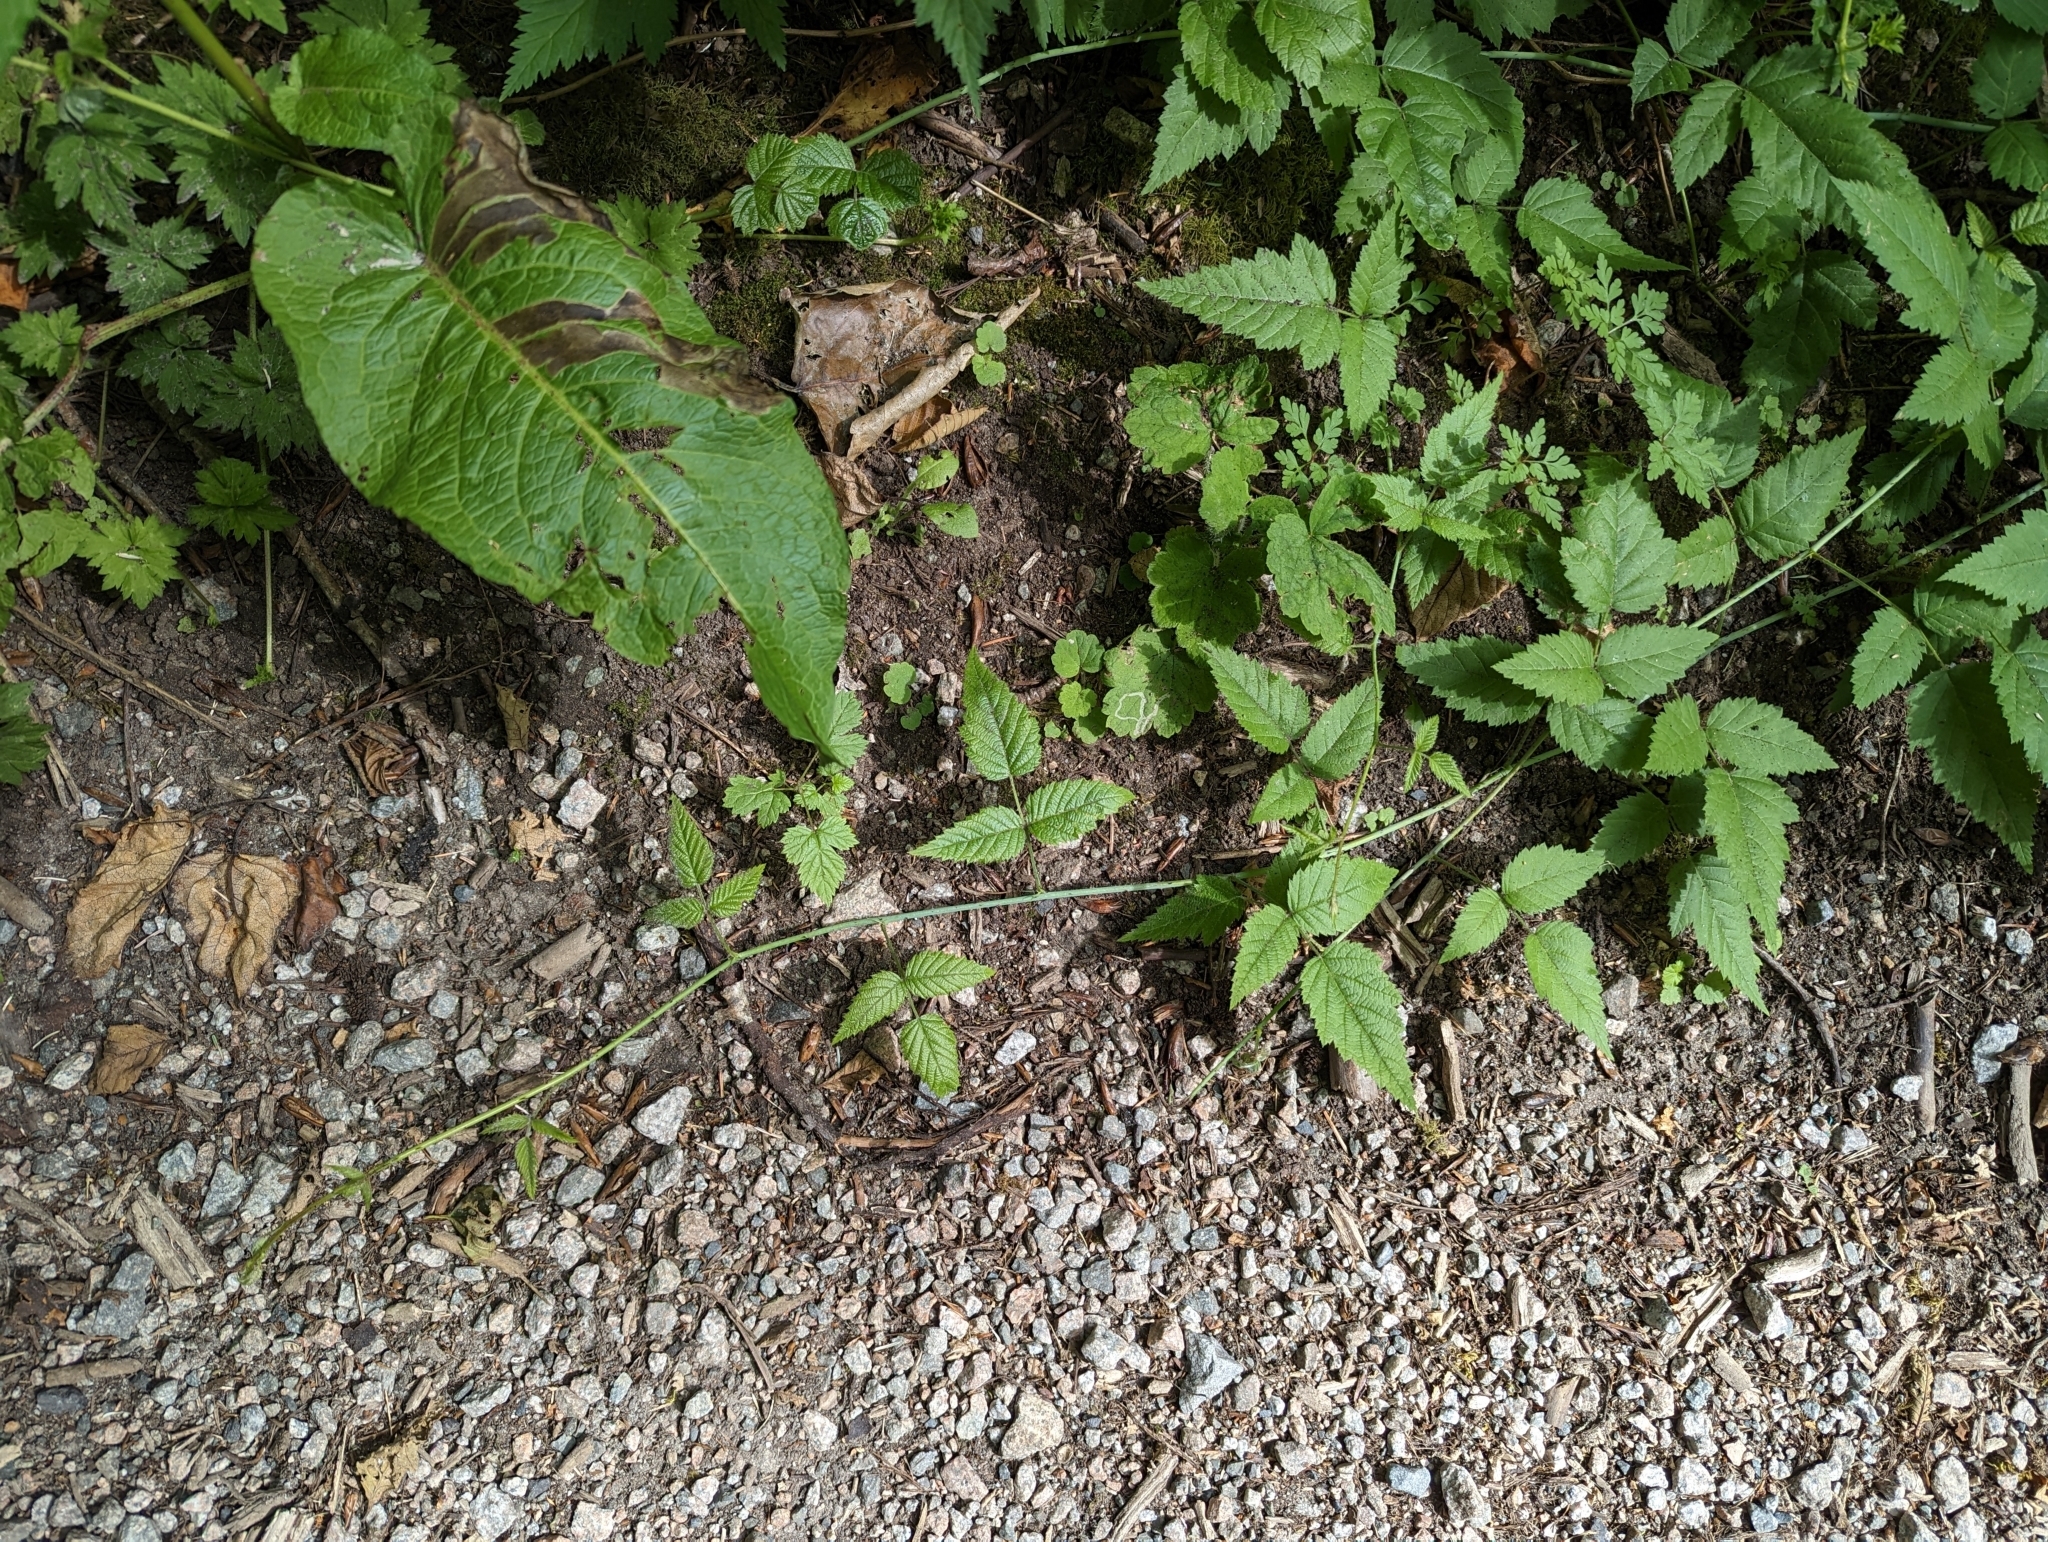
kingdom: Plantae
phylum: Tracheophyta
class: Magnoliopsida
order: Rosales
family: Rosaceae
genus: Rubus
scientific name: Rubus ursinus
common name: Pacific blackberry
